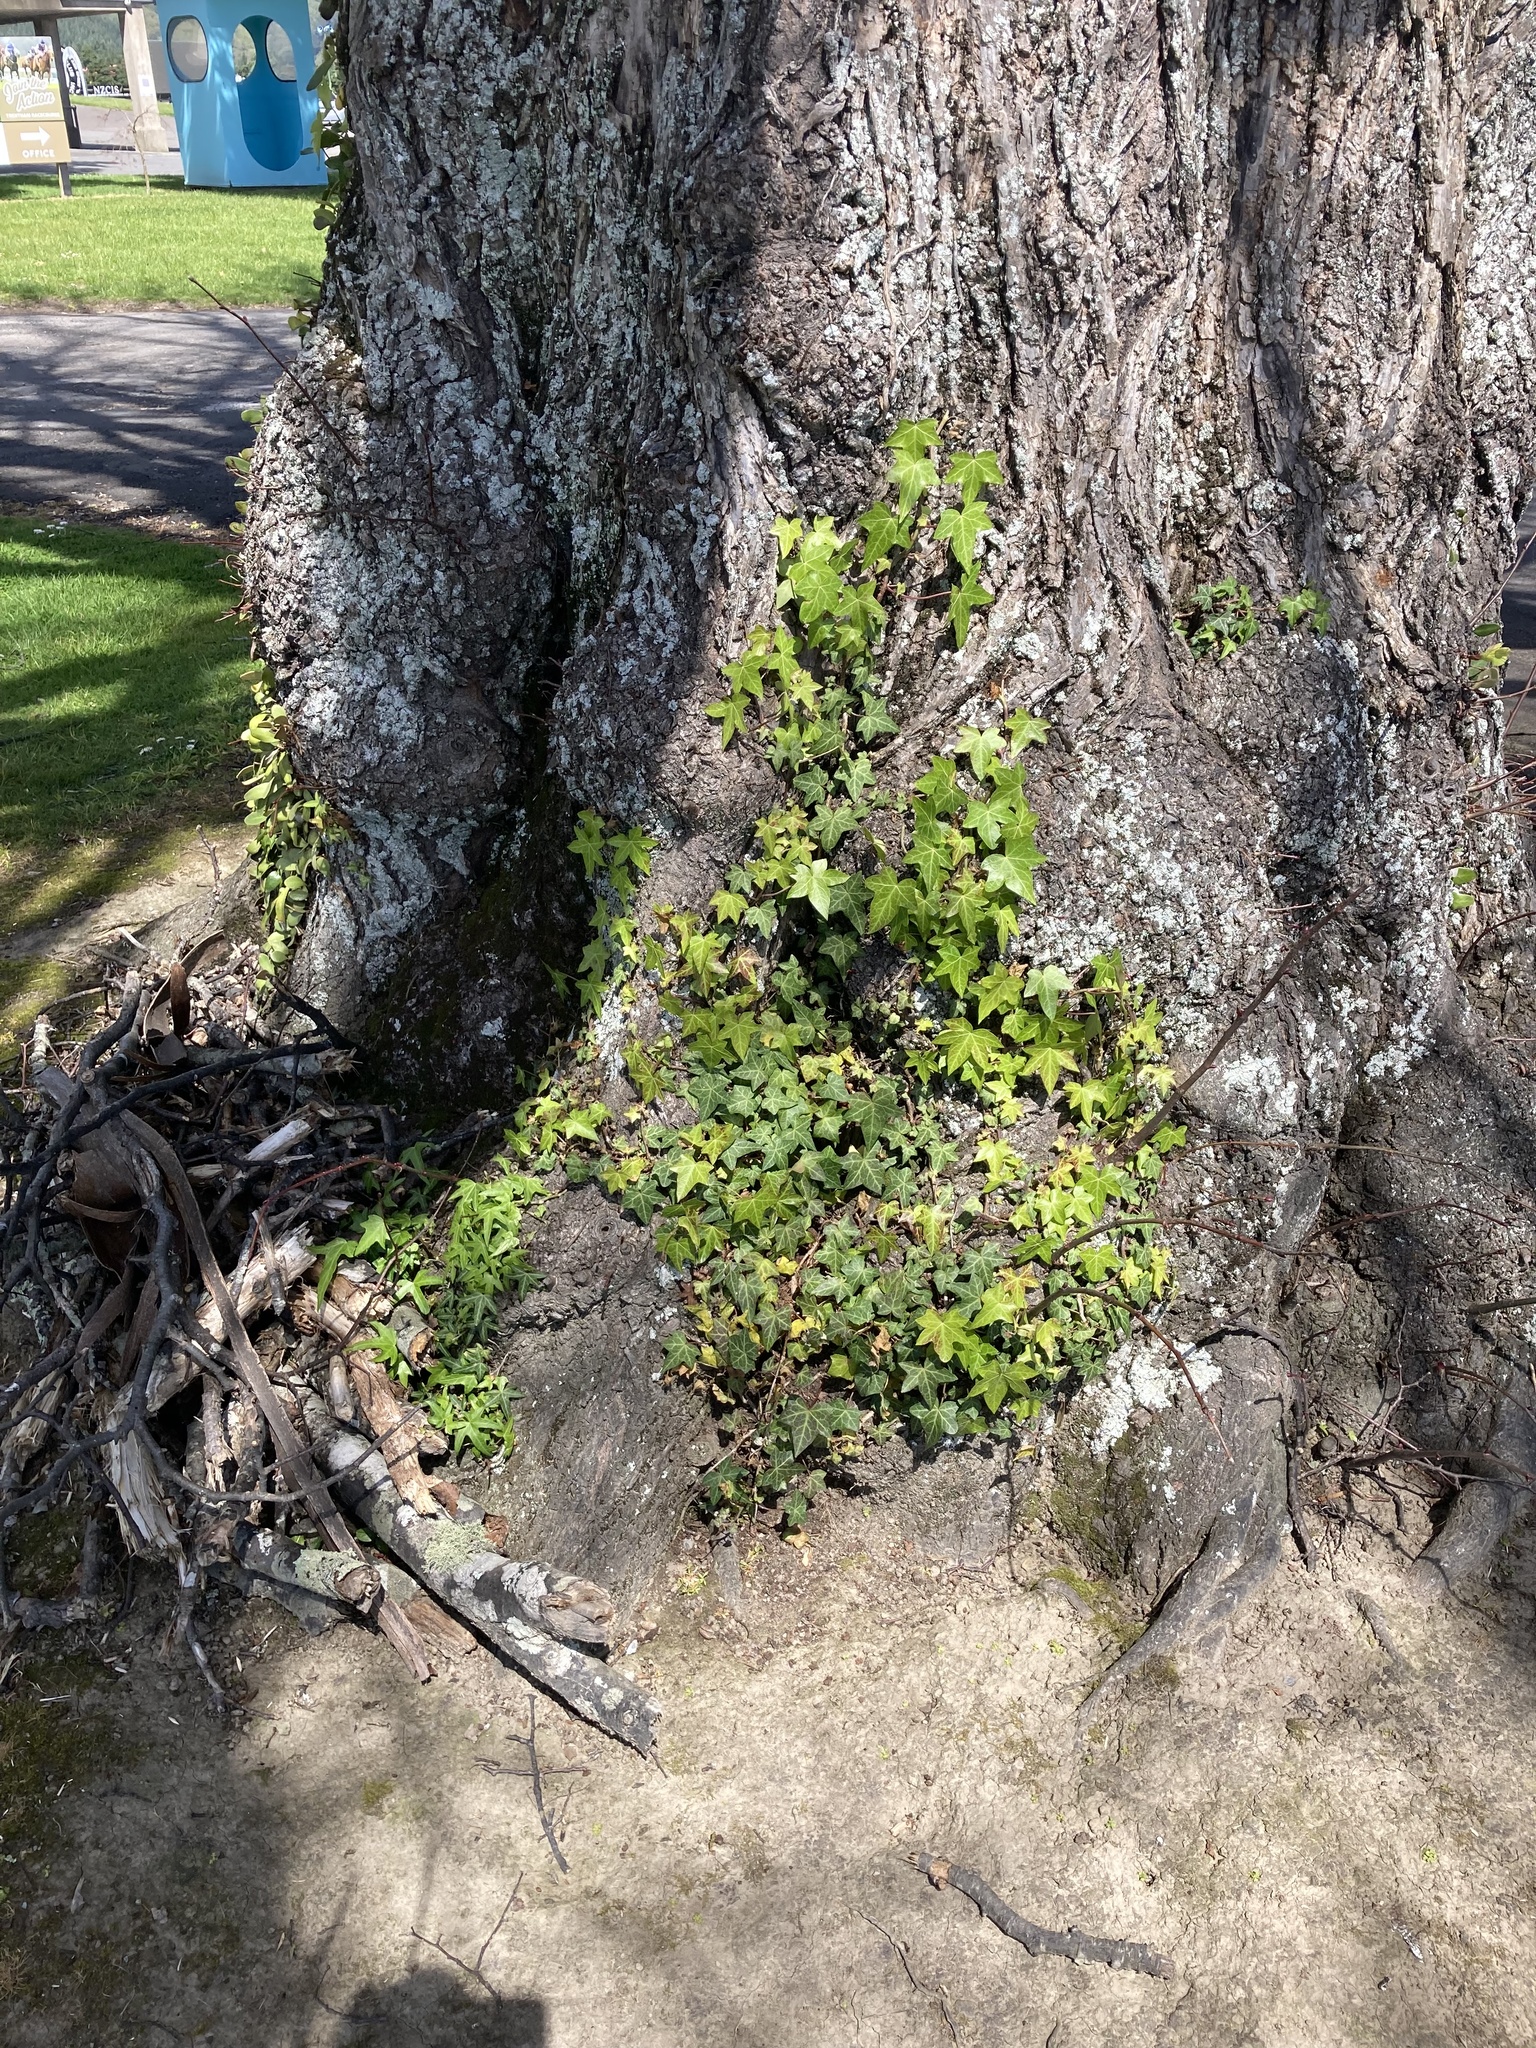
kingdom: Plantae
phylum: Tracheophyta
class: Magnoliopsida
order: Apiales
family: Araliaceae
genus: Hedera
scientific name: Hedera helix
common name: Ivy
